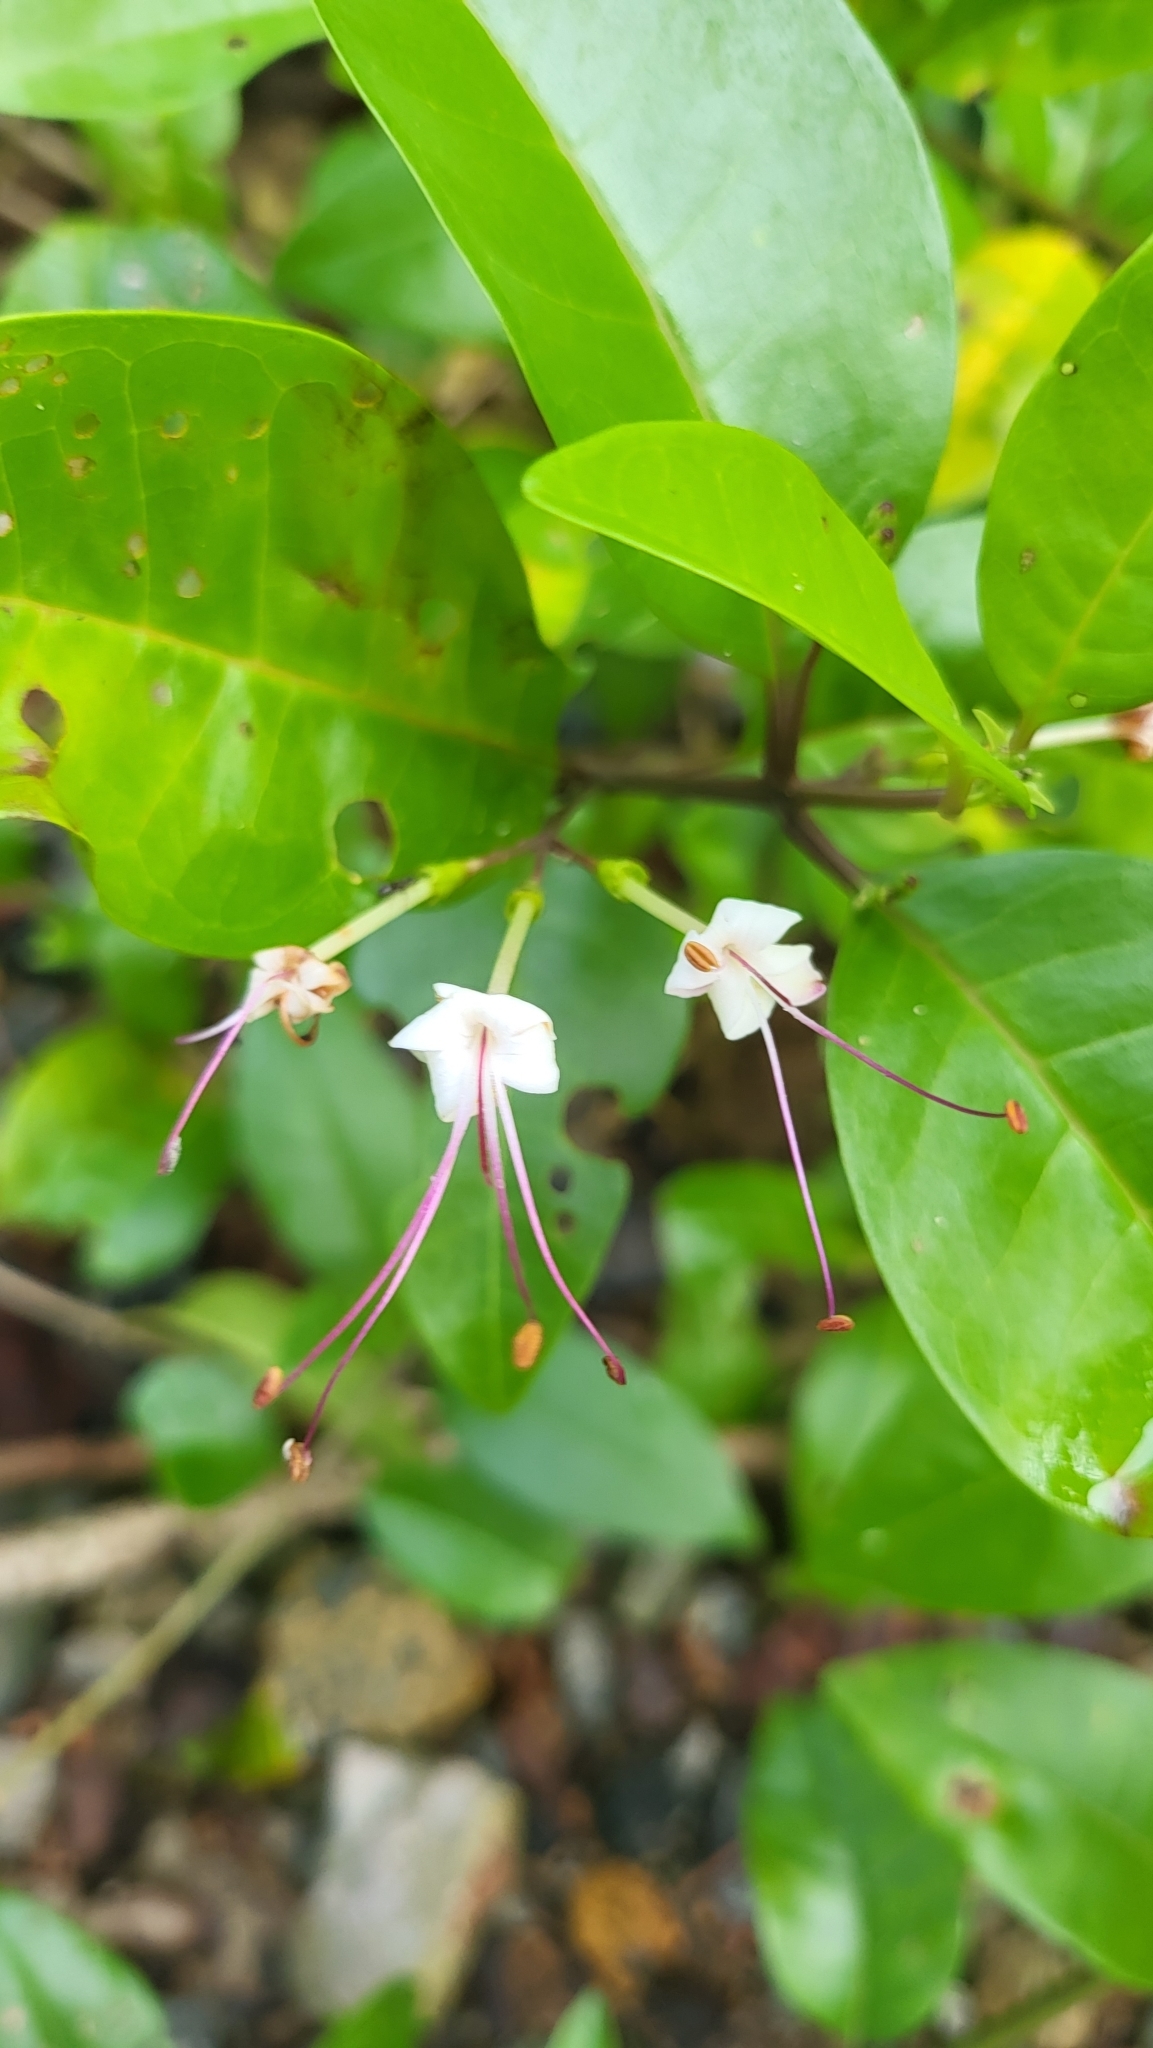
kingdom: Plantae
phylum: Tracheophyta
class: Magnoliopsida
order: Lamiales
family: Lamiaceae
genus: Volkameria
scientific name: Volkameria inermis
